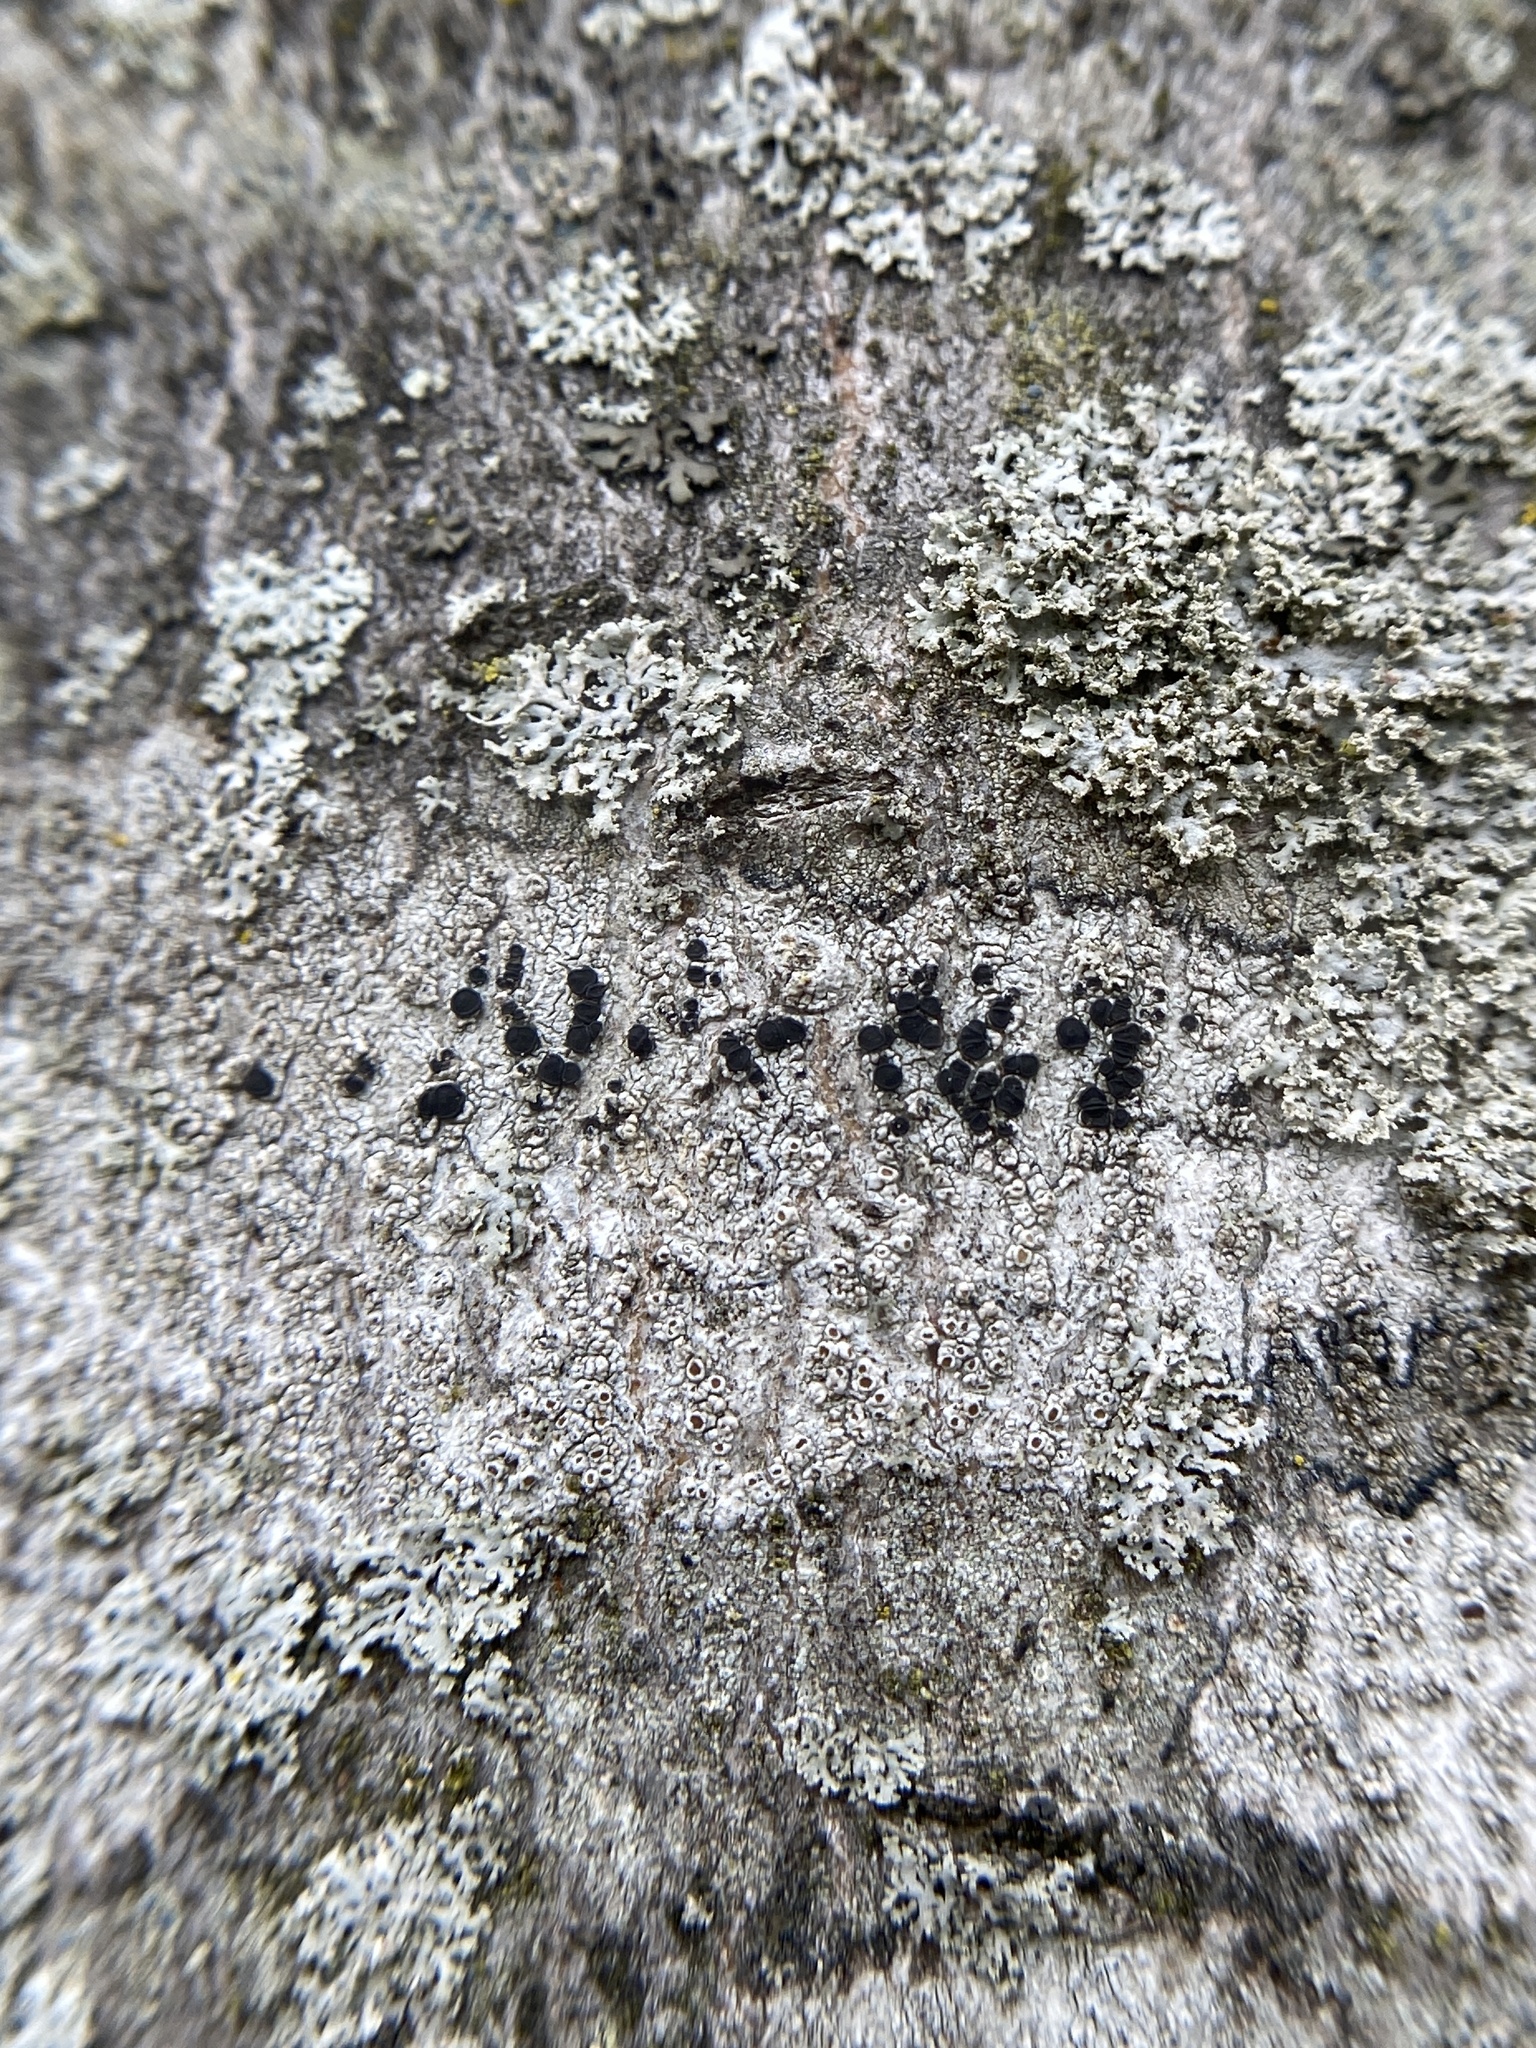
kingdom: Fungi
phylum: Ascomycota
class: Lecanoromycetes
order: Caliciales
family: Caliciaceae
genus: Buellia
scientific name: Buellia erubescens
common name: Common button lichen
